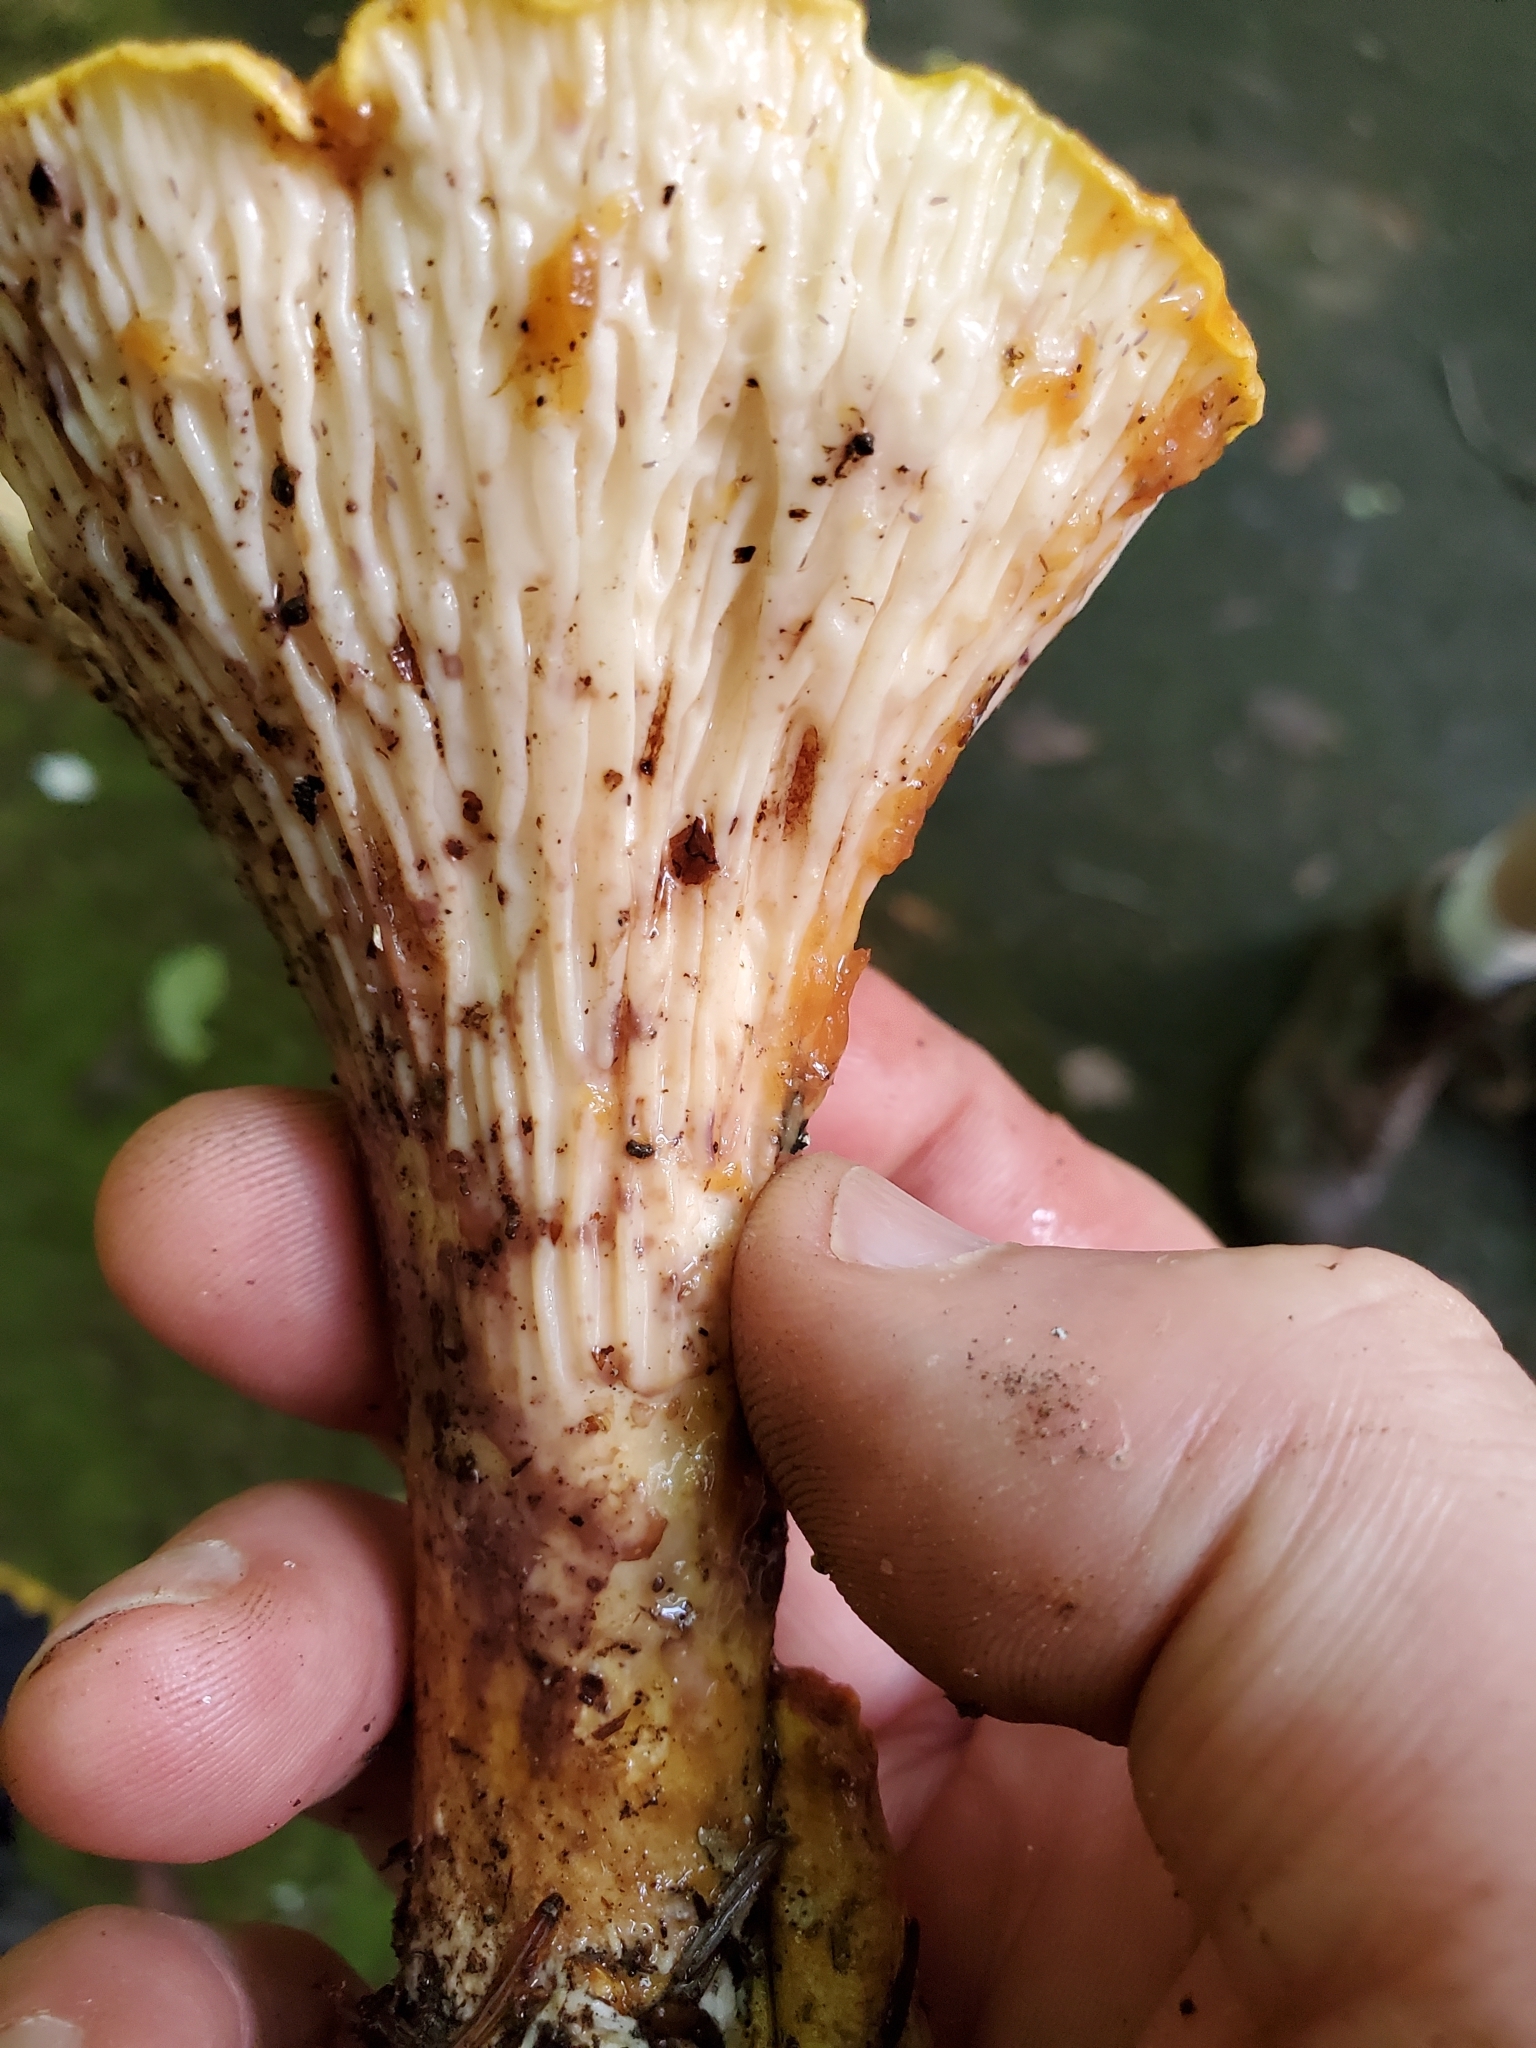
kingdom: Fungi
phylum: Basidiomycota
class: Agaricomycetes
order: Gomphales
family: Gomphaceae
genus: Turbinellus
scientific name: Turbinellus floccosus
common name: Scaly chanterelle
